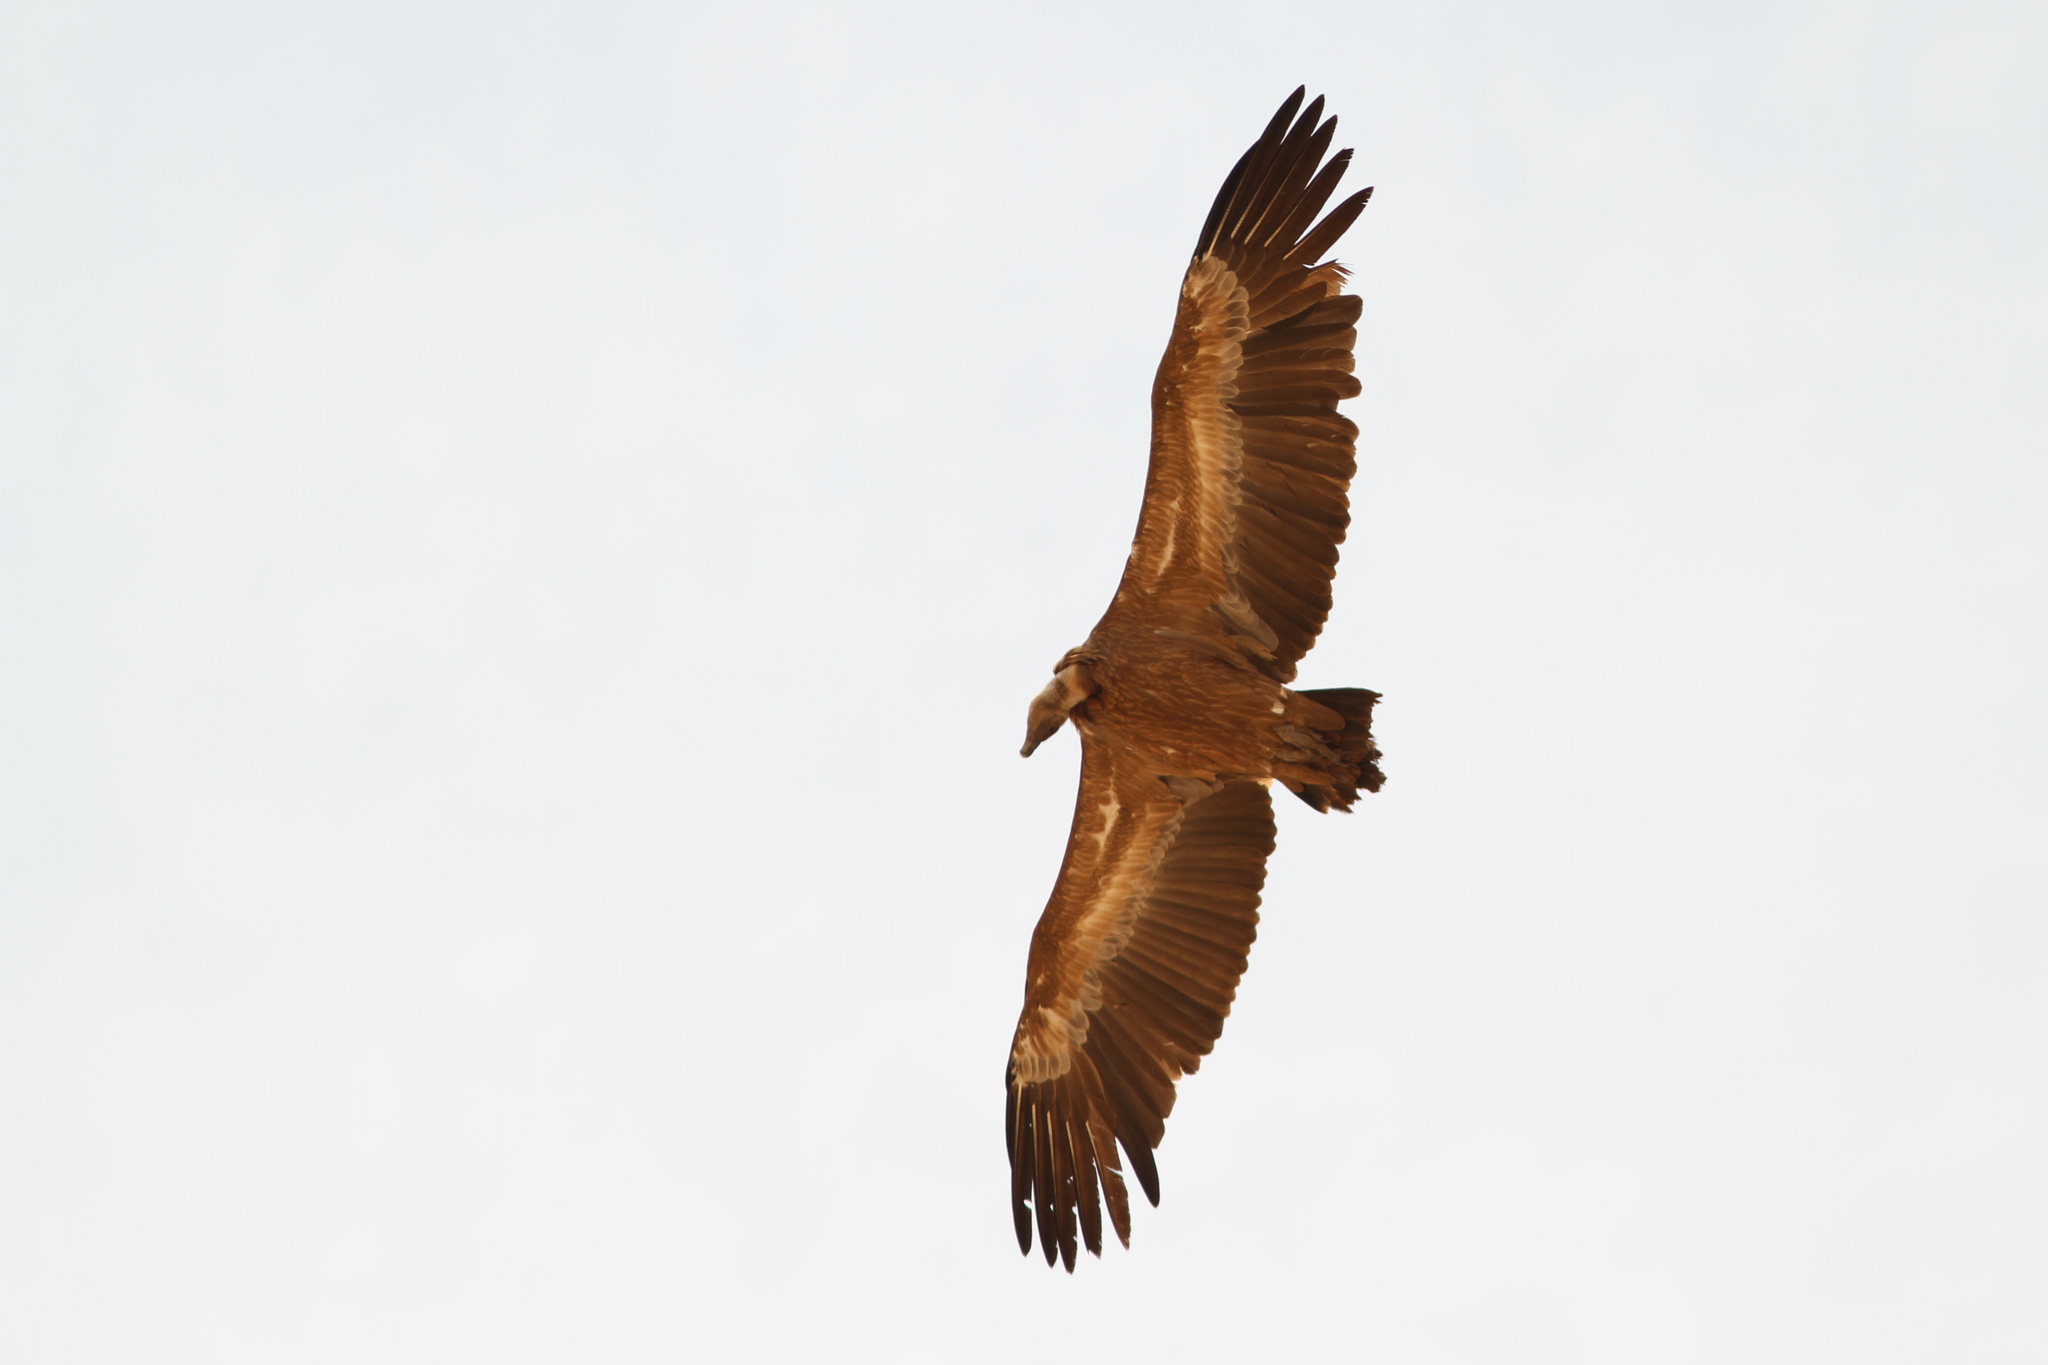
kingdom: Animalia
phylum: Chordata
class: Aves
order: Accipitriformes
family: Accipitridae
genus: Gyps
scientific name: Gyps fulvus
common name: Griffon vulture
